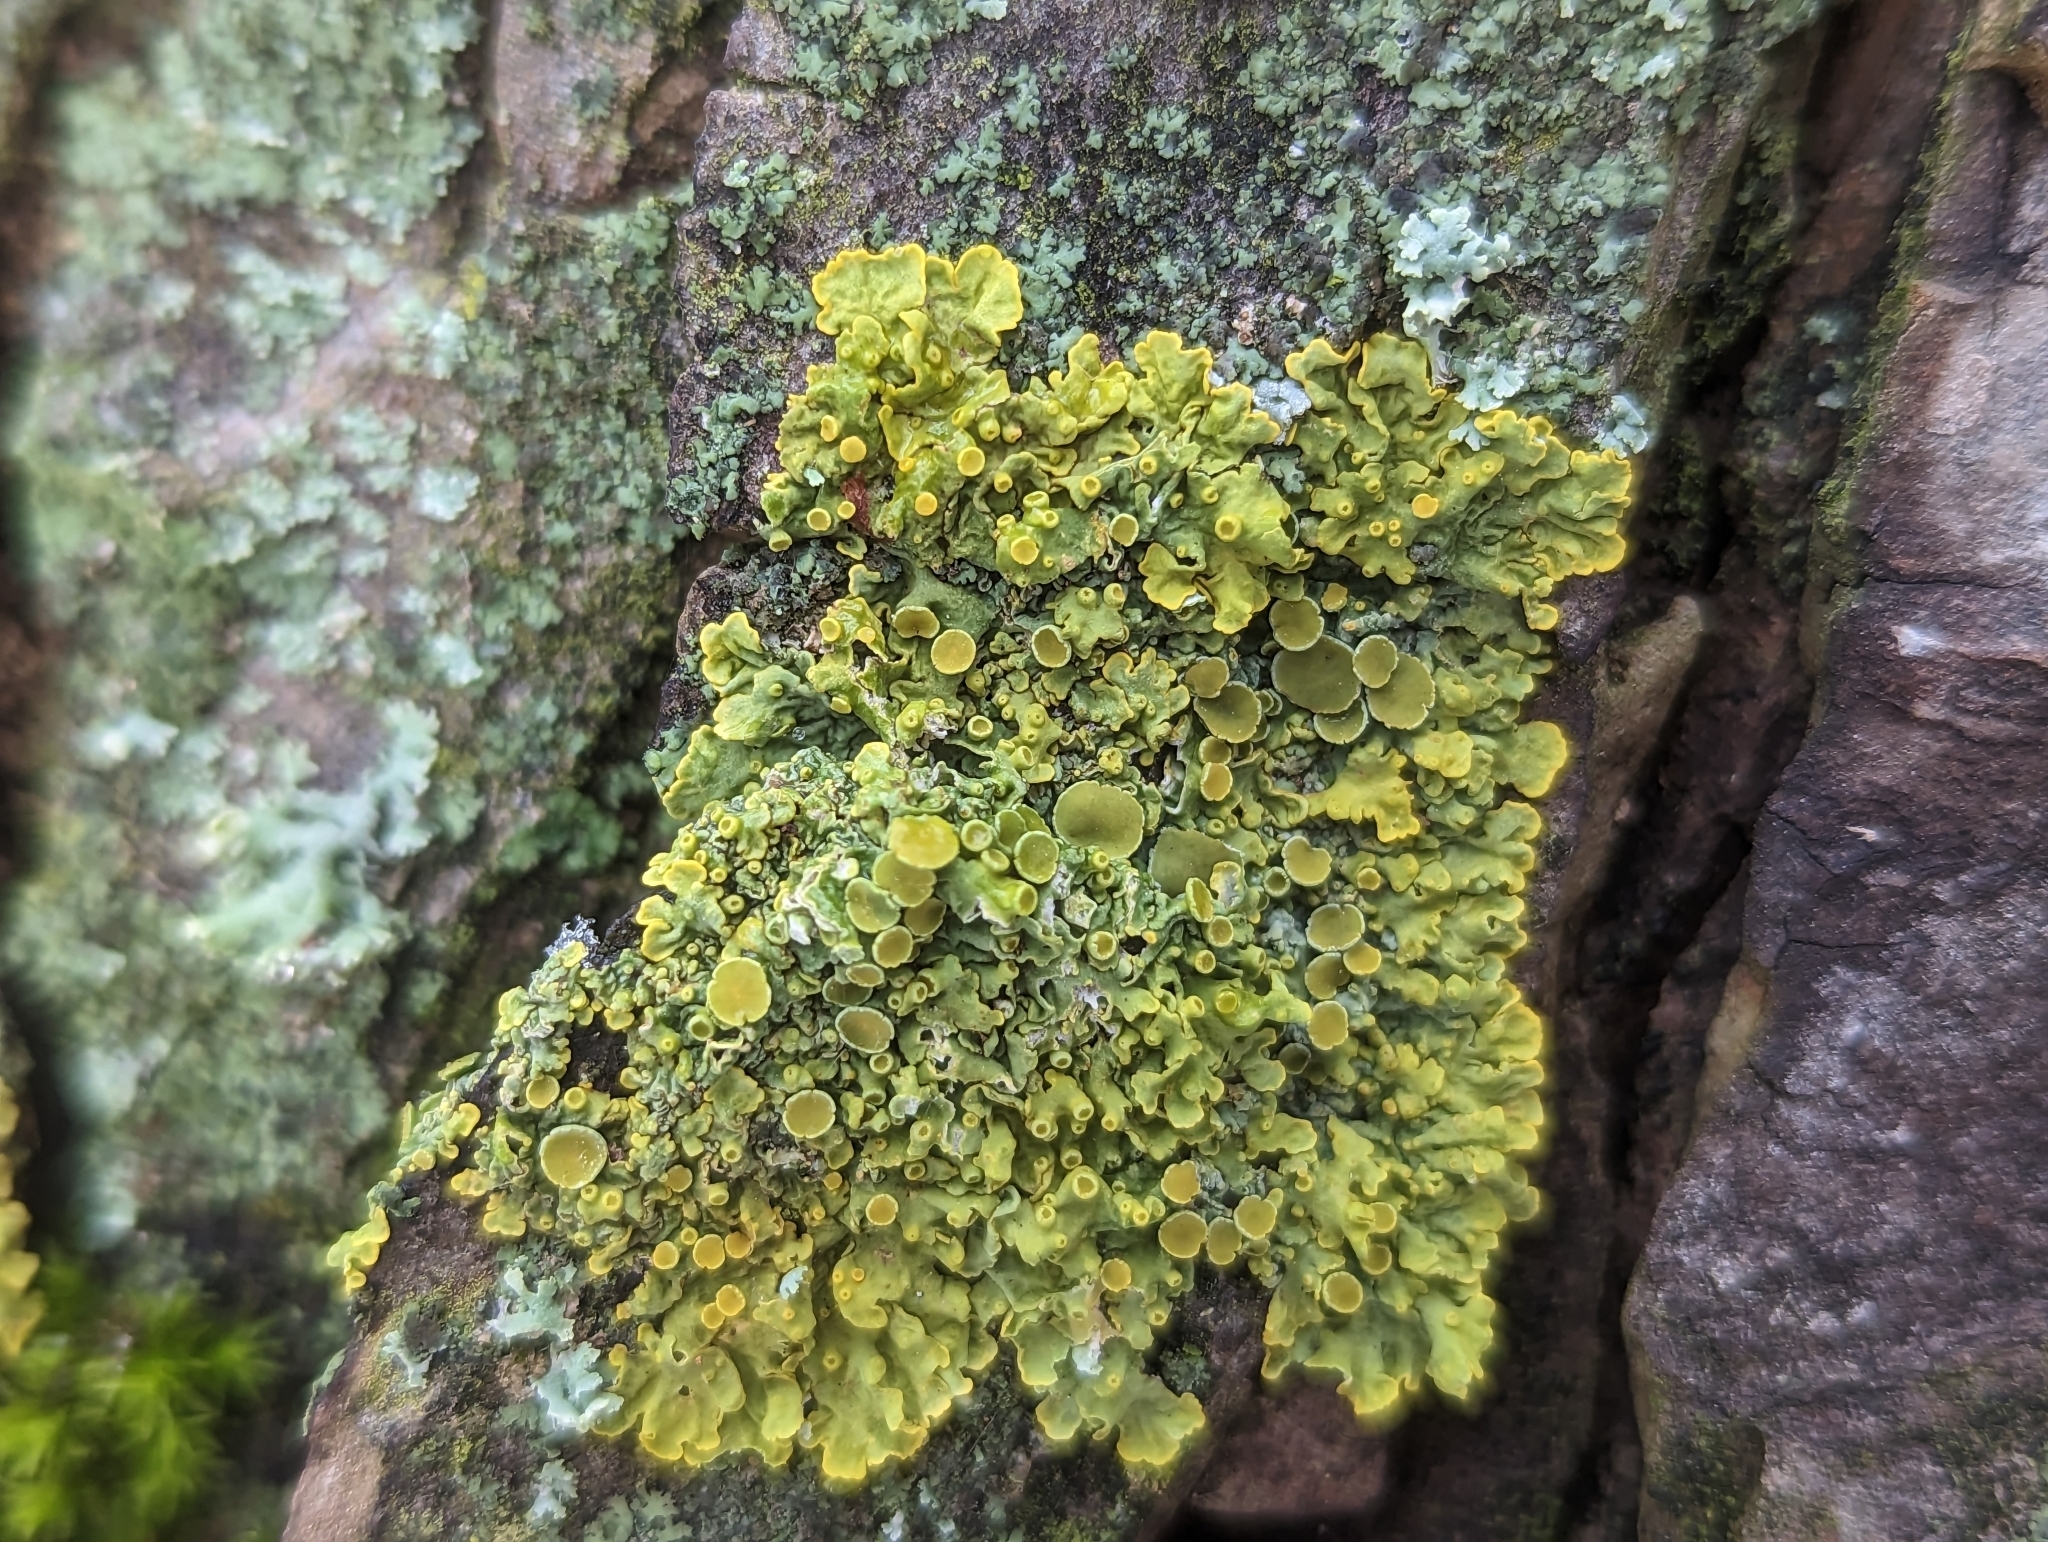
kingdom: Fungi
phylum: Ascomycota
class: Lecanoromycetes
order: Teloschistales
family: Teloschistaceae
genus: Xanthoria
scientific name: Xanthoria parietina
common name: Common orange lichen
